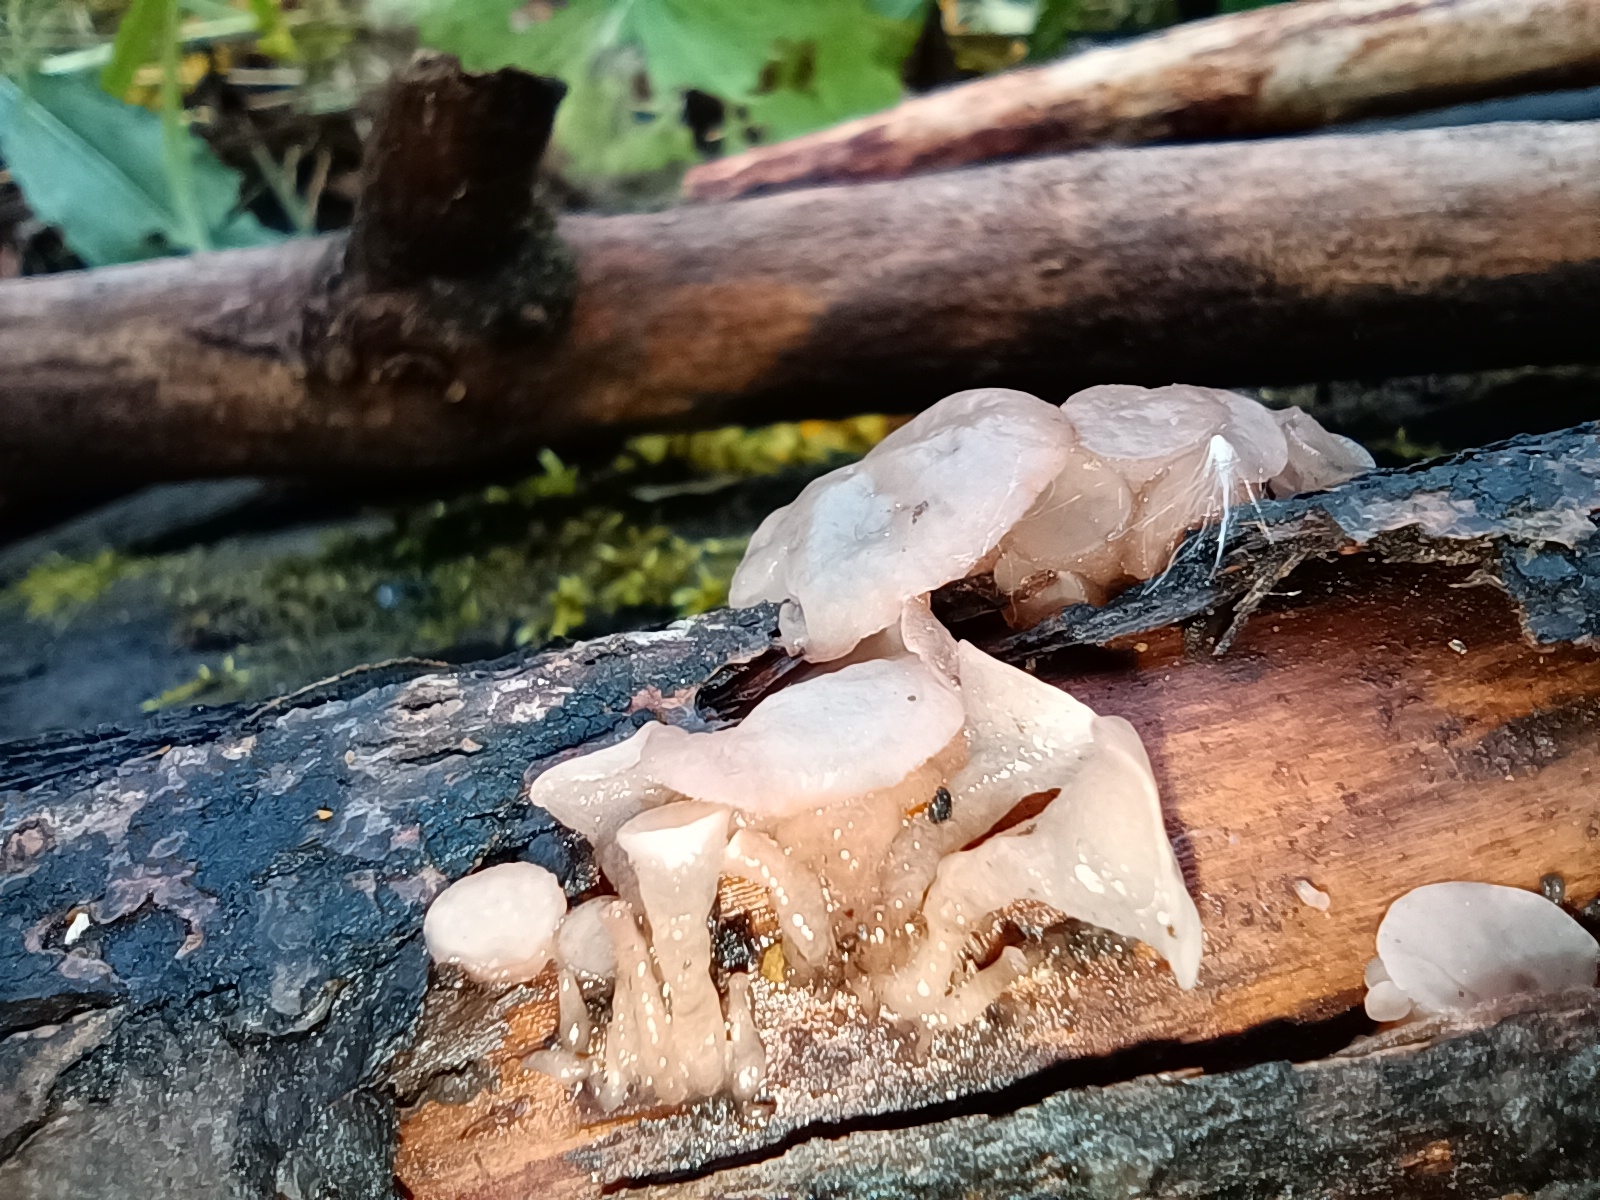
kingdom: Fungi
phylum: Ascomycota
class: Leotiomycetes
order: Helotiales
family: Gelatinodiscaceae
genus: Neobulgaria
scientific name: Neobulgaria pura
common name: Beech jelly-disc
